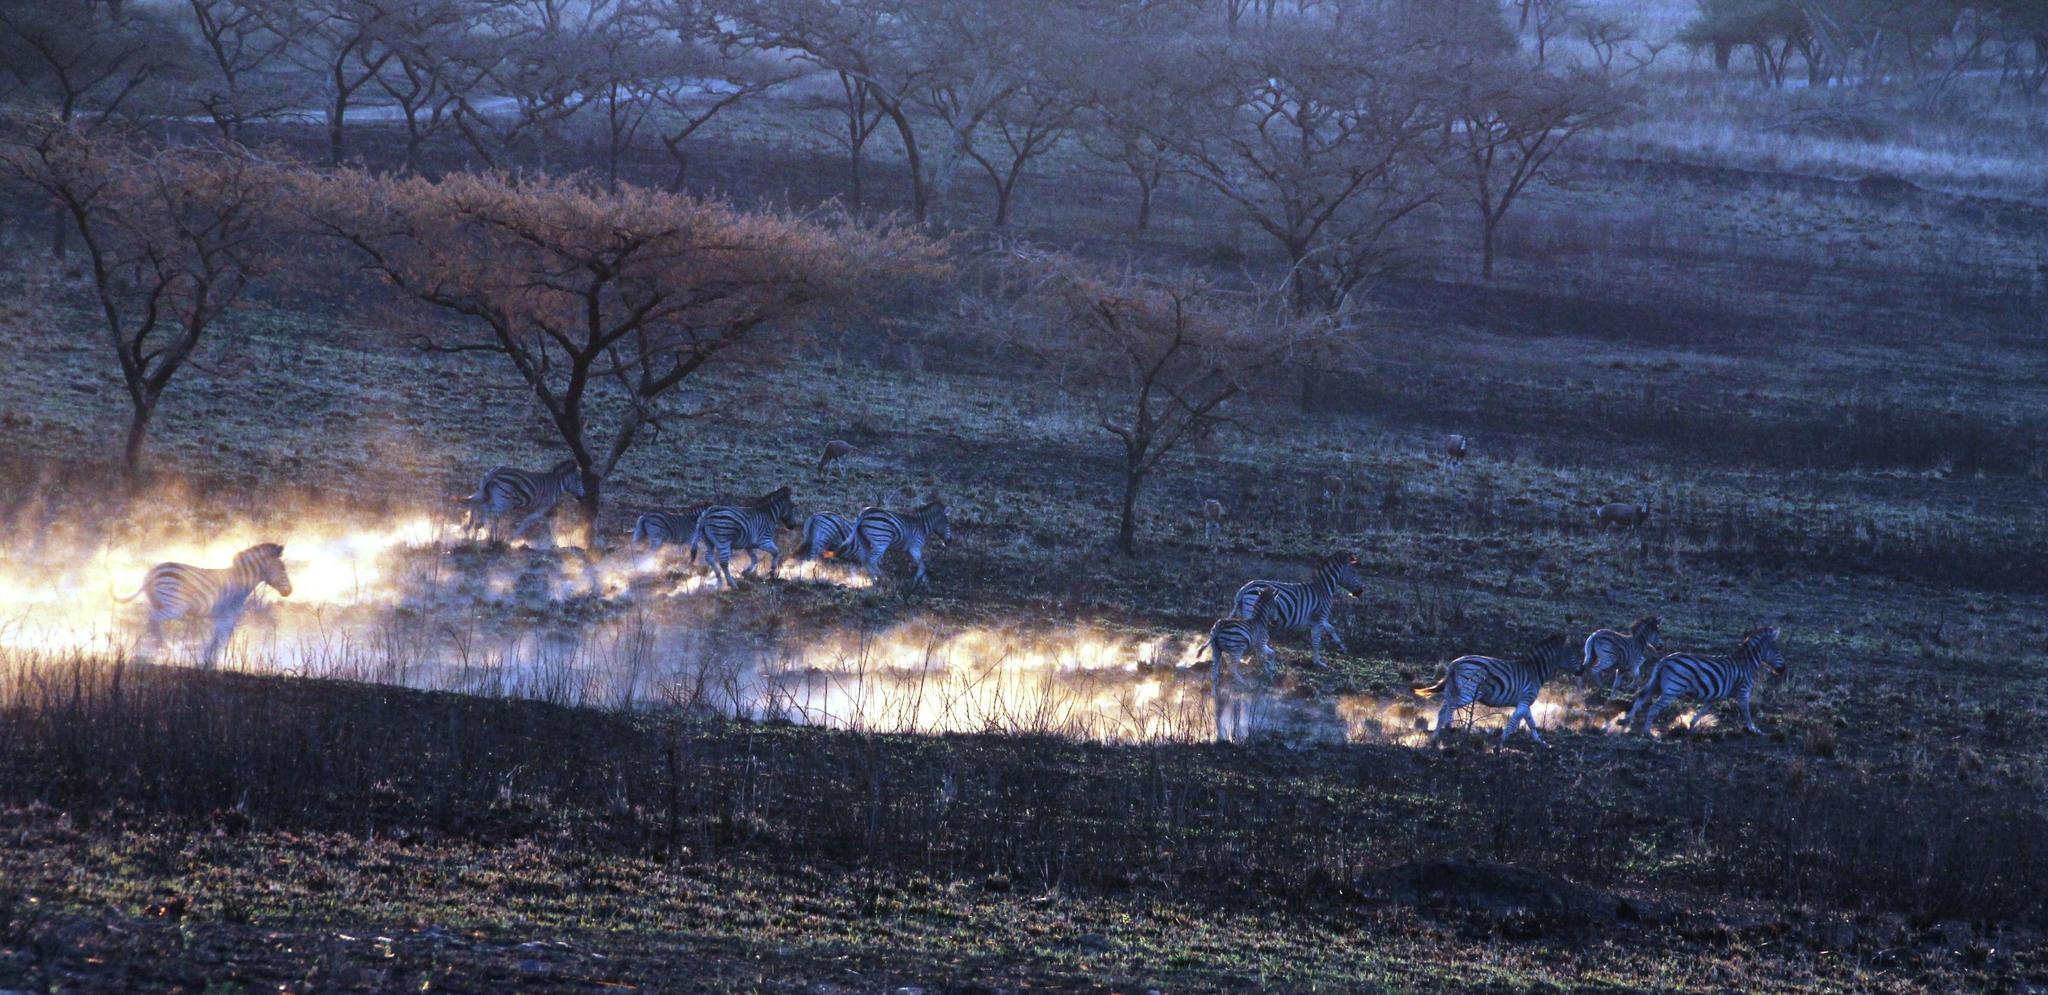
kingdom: Animalia
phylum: Chordata
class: Mammalia
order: Perissodactyla
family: Equidae
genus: Equus
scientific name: Equus quagga
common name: Plains zebra
